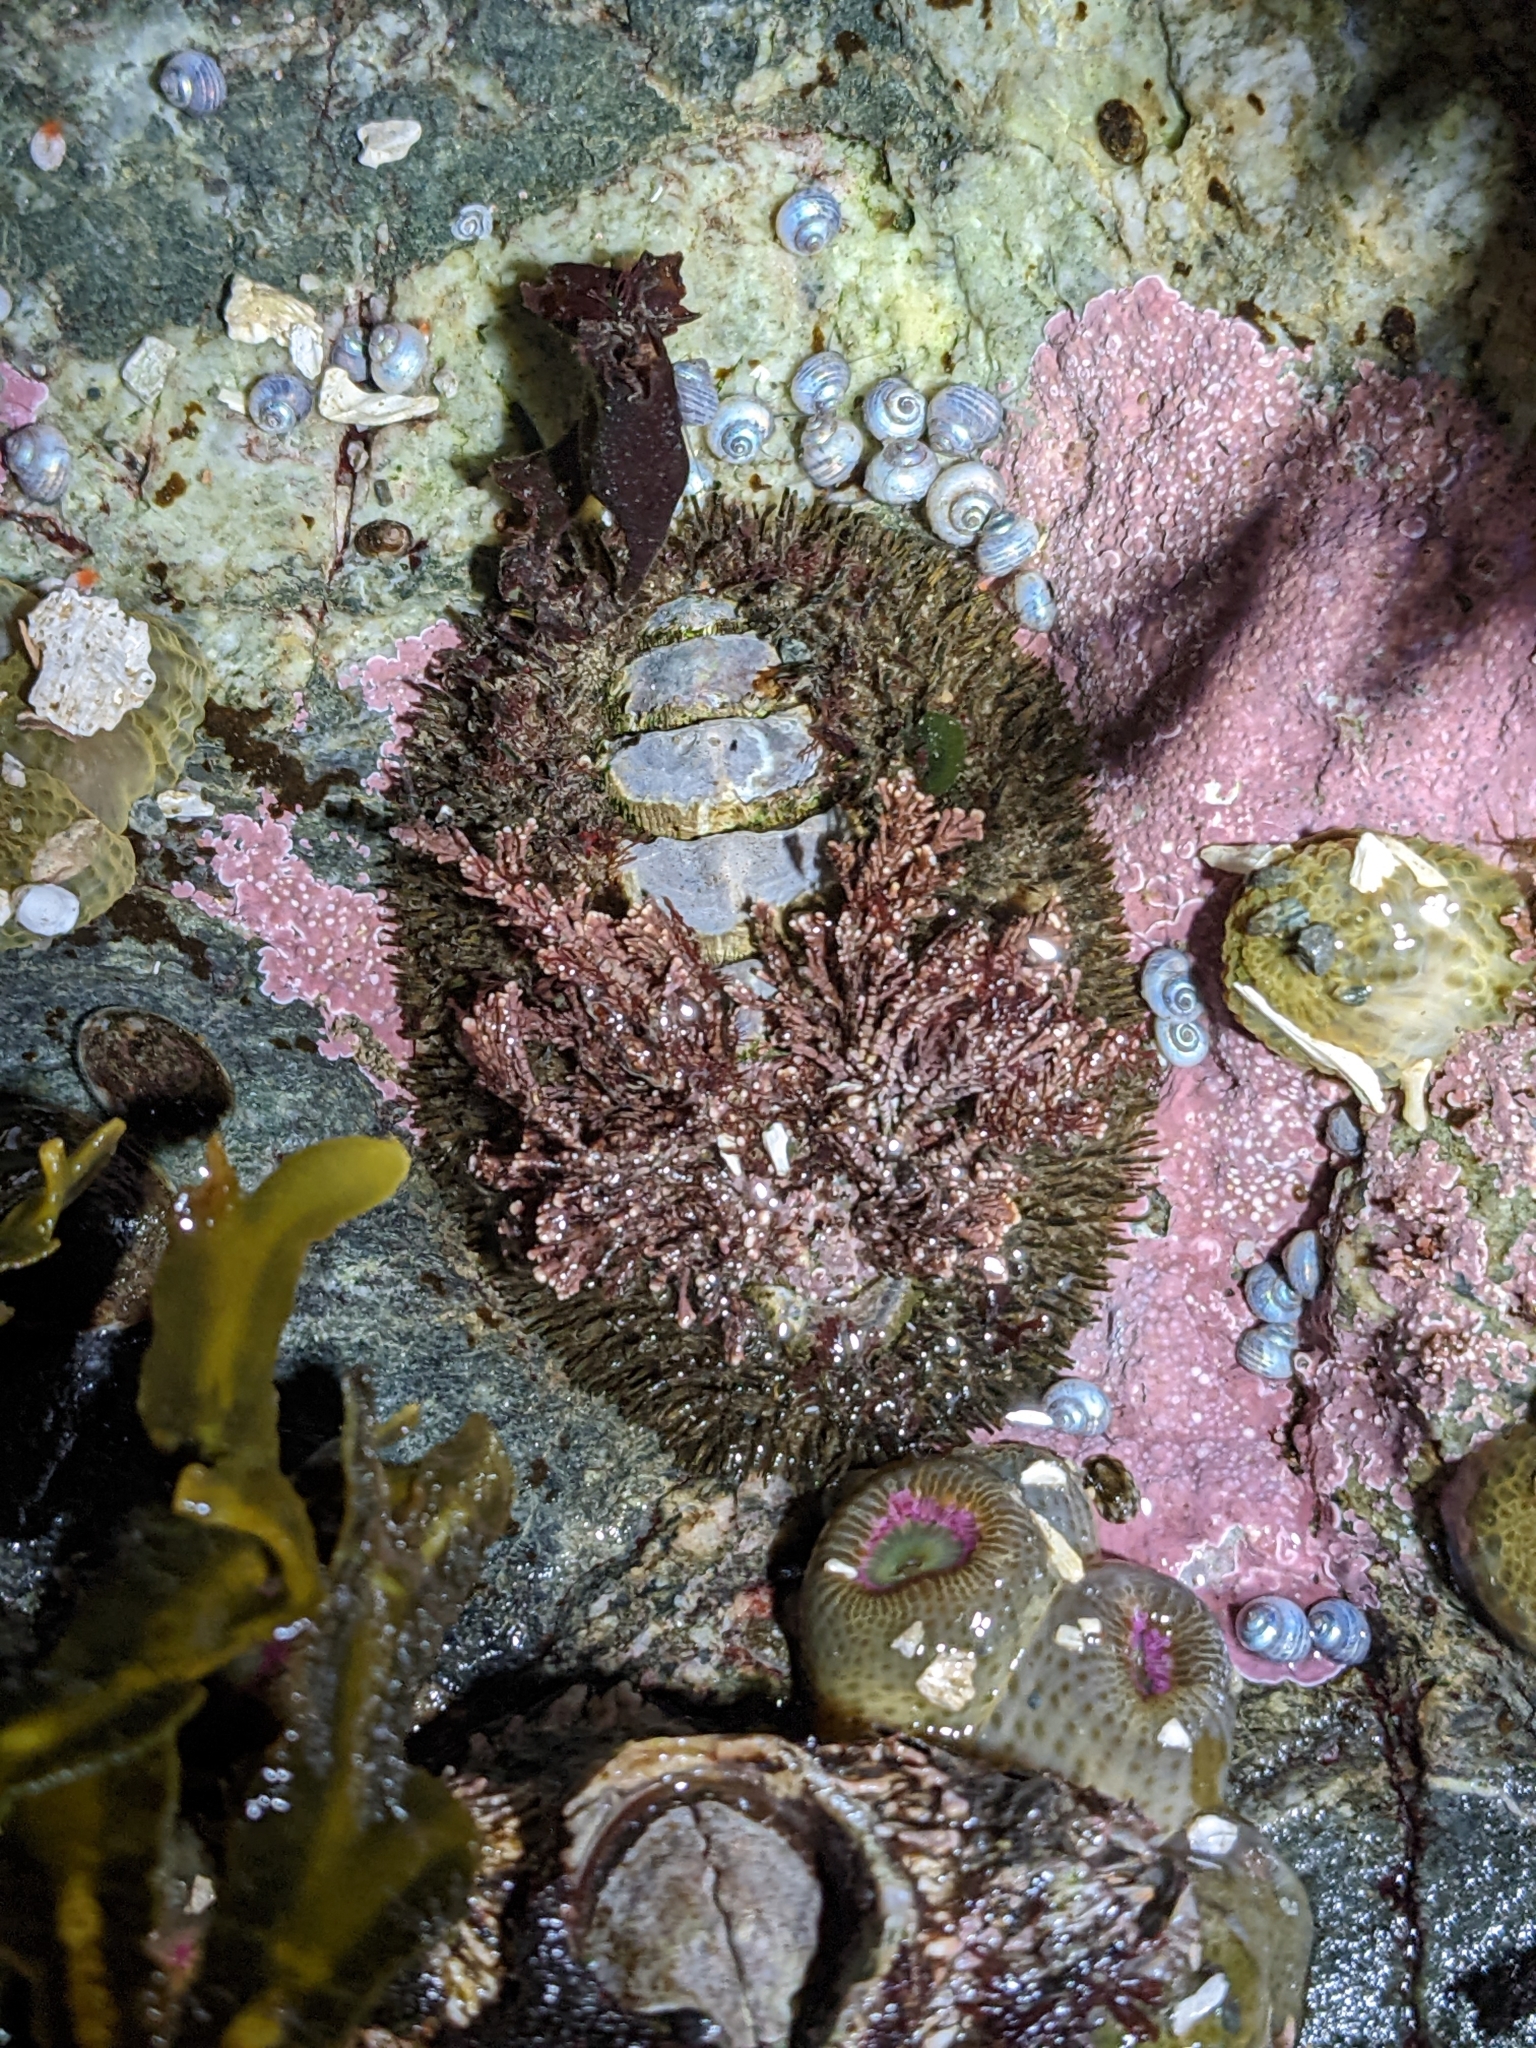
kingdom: Animalia
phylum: Mollusca
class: Polyplacophora
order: Chitonida
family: Mopaliidae
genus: Mopalia
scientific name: Mopalia muscosa
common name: Mossy chiton
